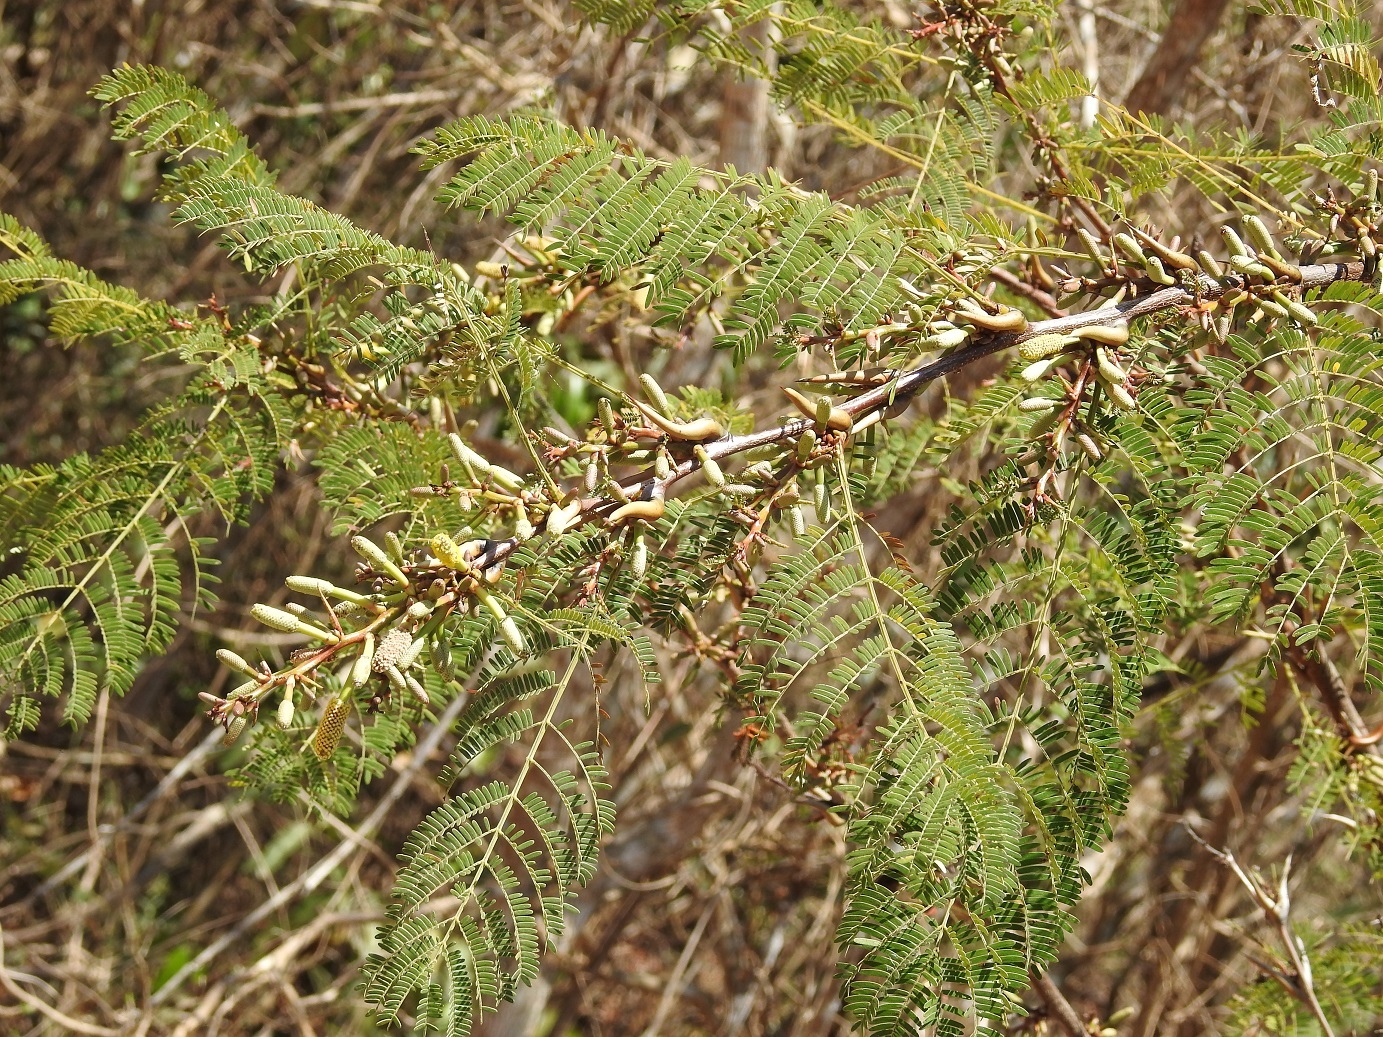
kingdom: Plantae
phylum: Tracheophyta
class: Magnoliopsida
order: Fabales
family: Fabaceae
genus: Vachellia
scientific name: Vachellia cornigera
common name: Bullhorn wattle
